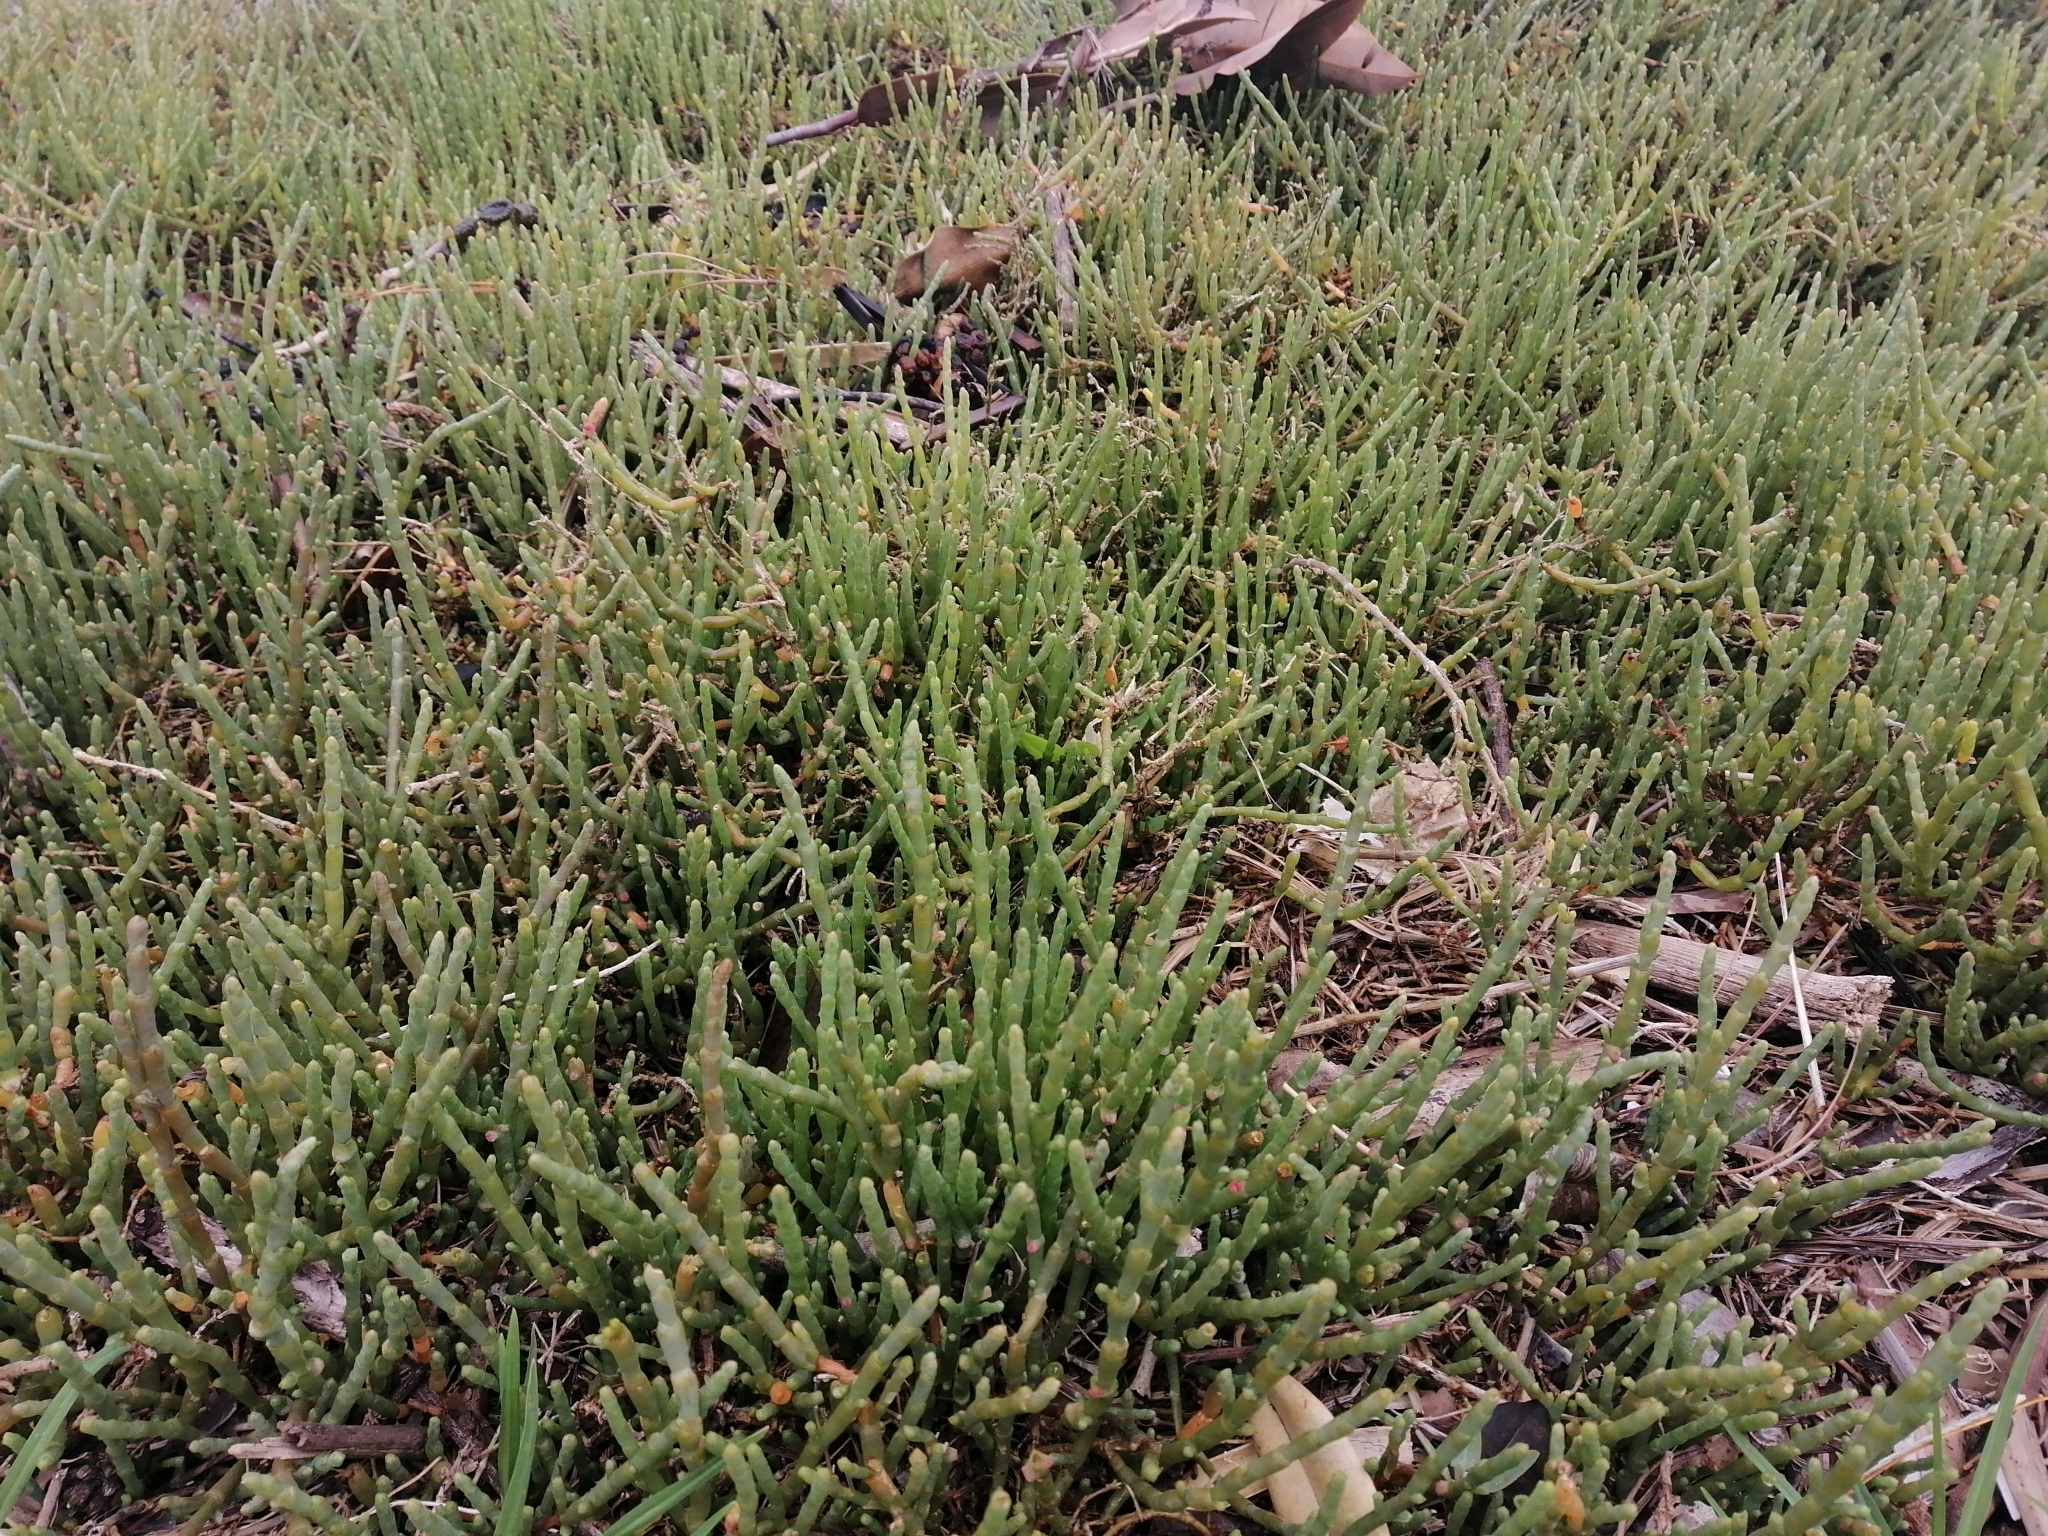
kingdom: Plantae
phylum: Tracheophyta
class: Magnoliopsida
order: Caryophyllales
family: Amaranthaceae
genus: Salicornia
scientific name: Salicornia quinqueflora
